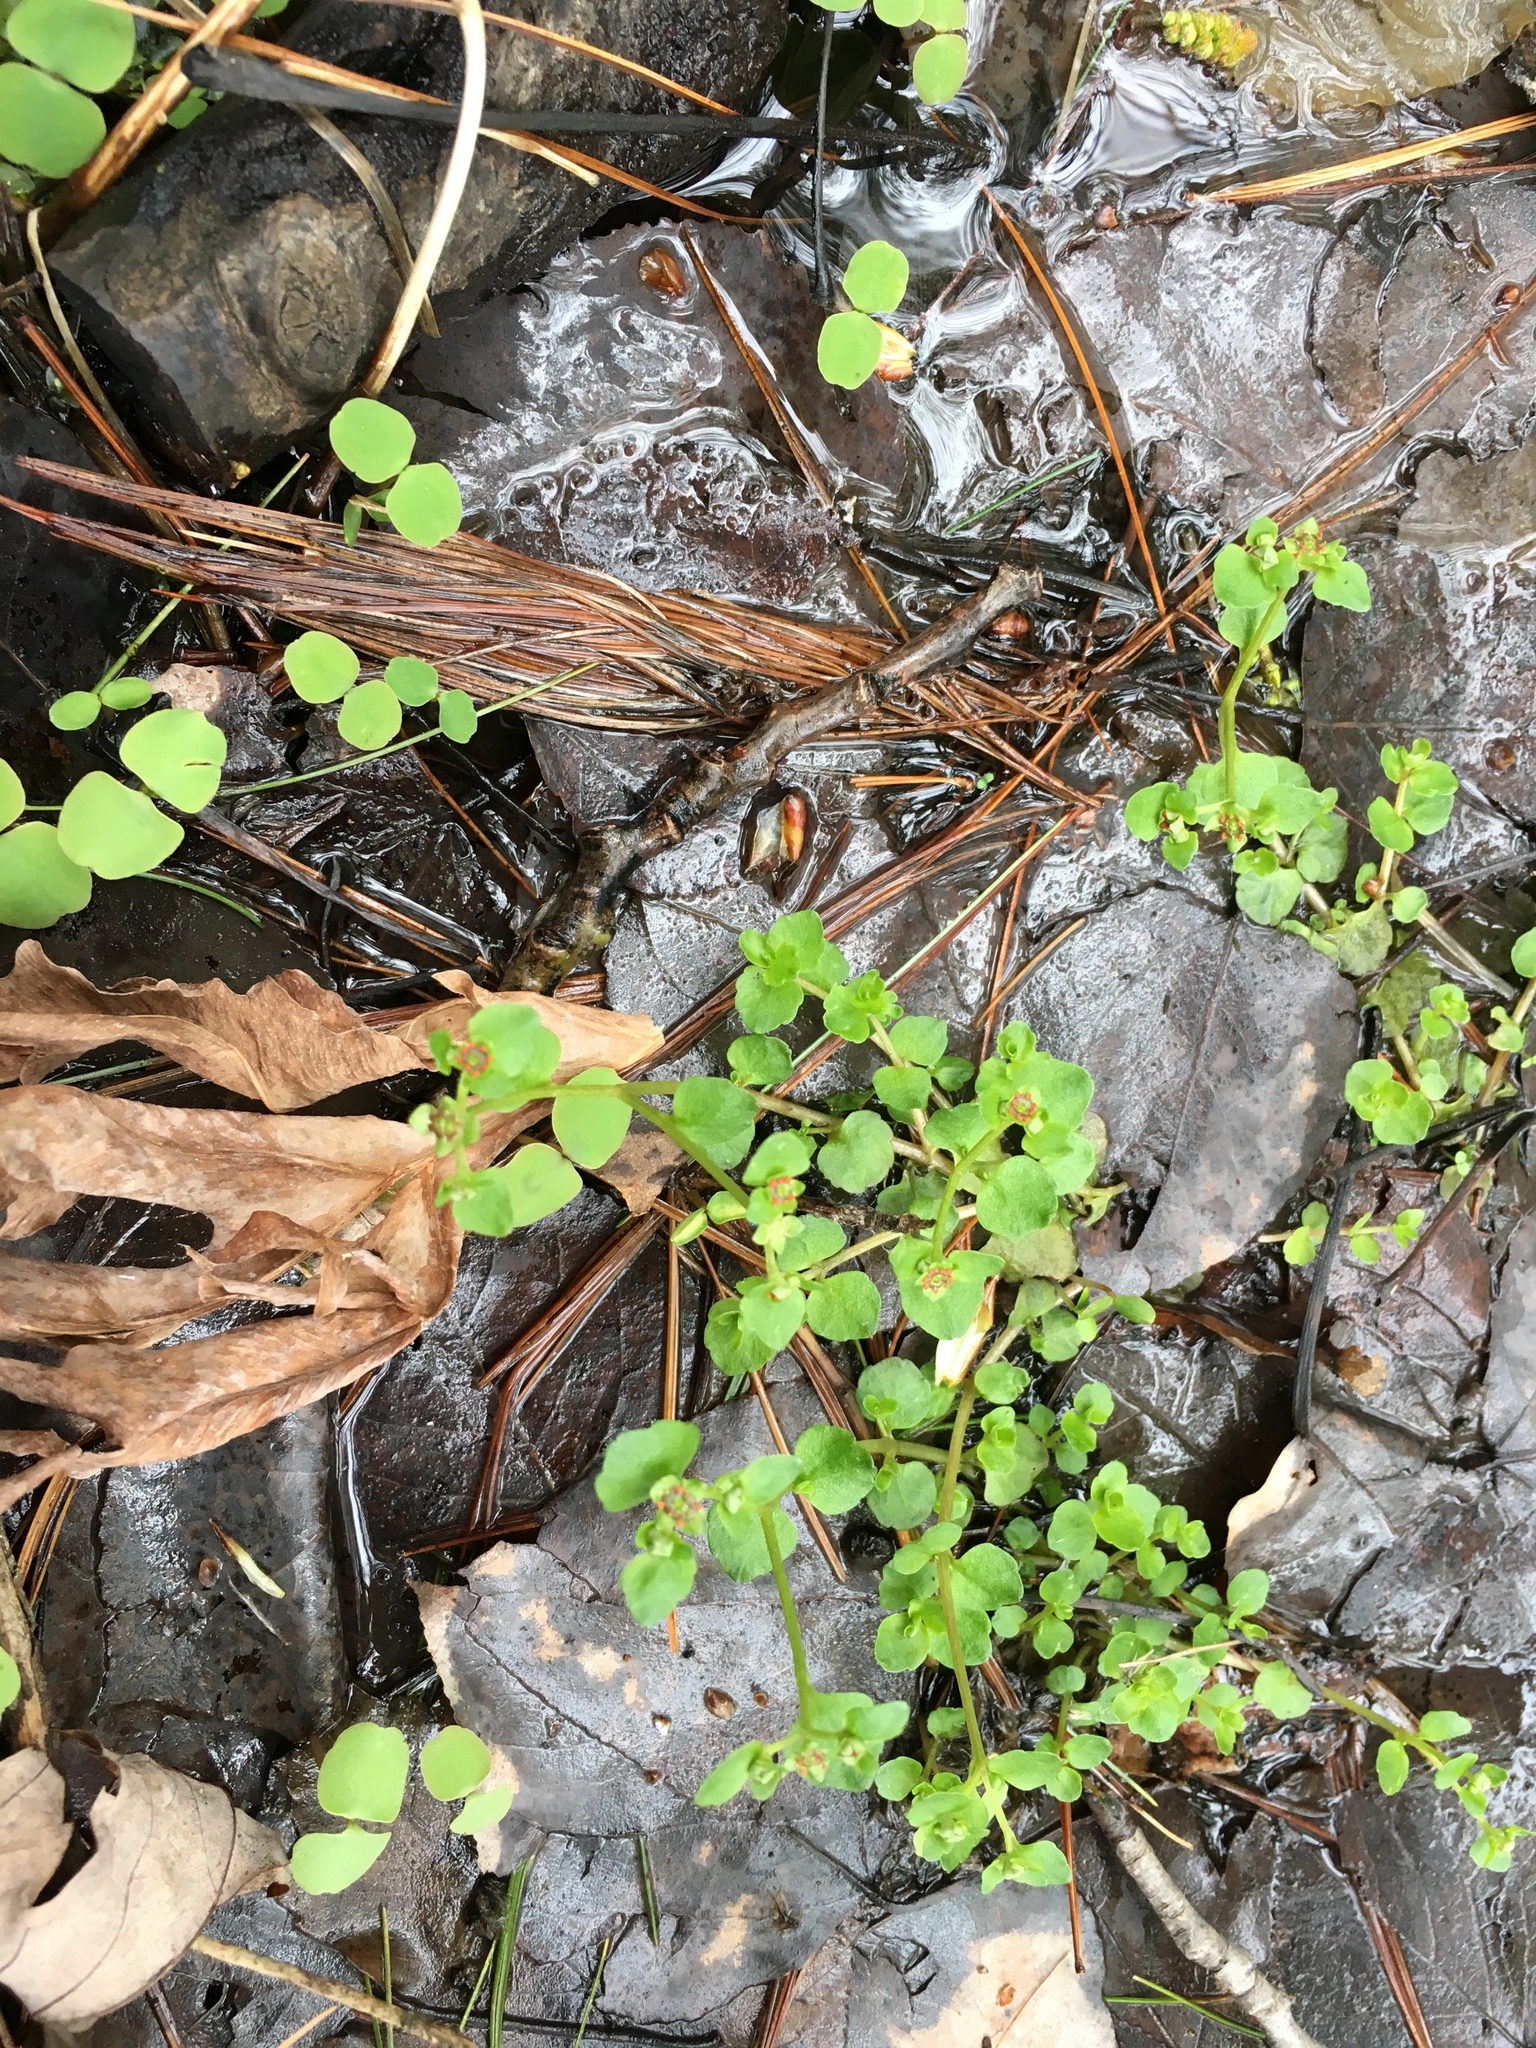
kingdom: Plantae
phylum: Tracheophyta
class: Magnoliopsida
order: Saxifragales
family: Saxifragaceae
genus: Chrysosplenium
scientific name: Chrysosplenium americanum
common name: American golden-saxifrage
